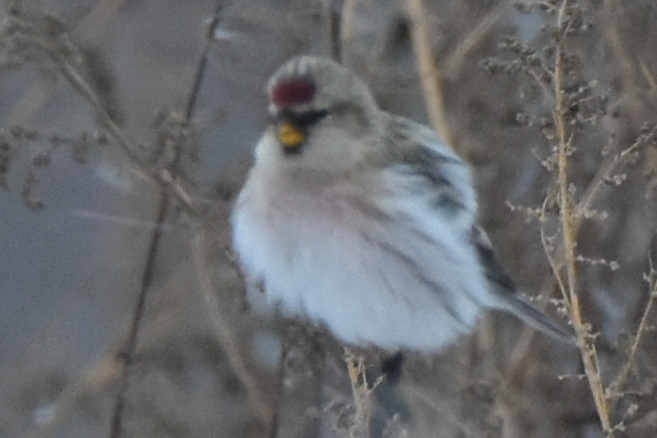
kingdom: Animalia
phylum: Chordata
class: Aves
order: Passeriformes
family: Fringillidae
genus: Acanthis
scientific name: Acanthis hornemanni
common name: Arctic redpoll
